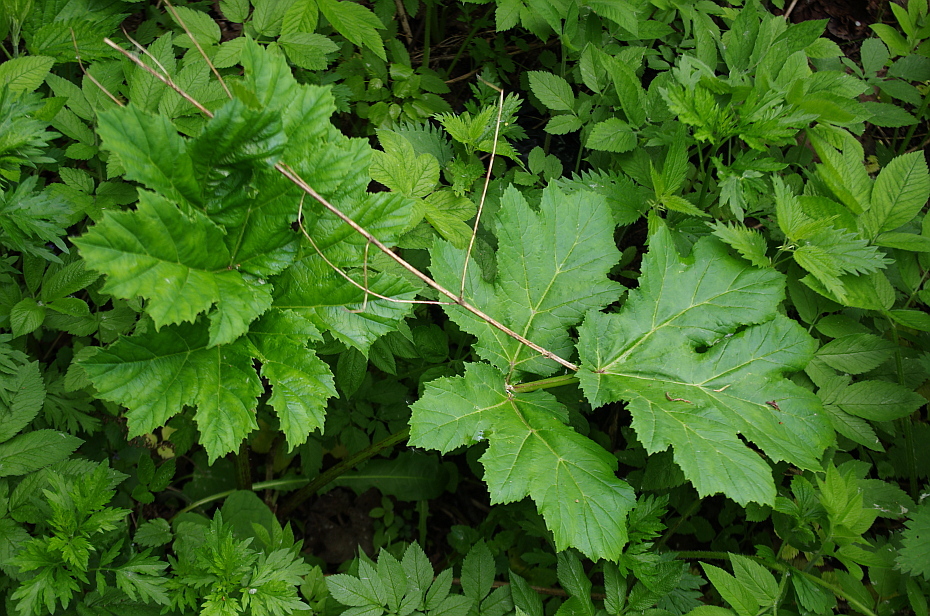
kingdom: Plantae
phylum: Tracheophyta
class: Magnoliopsida
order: Apiales
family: Apiaceae
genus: Heracleum
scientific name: Heracleum sosnowskyi
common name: Sosnowsky's hogweed
